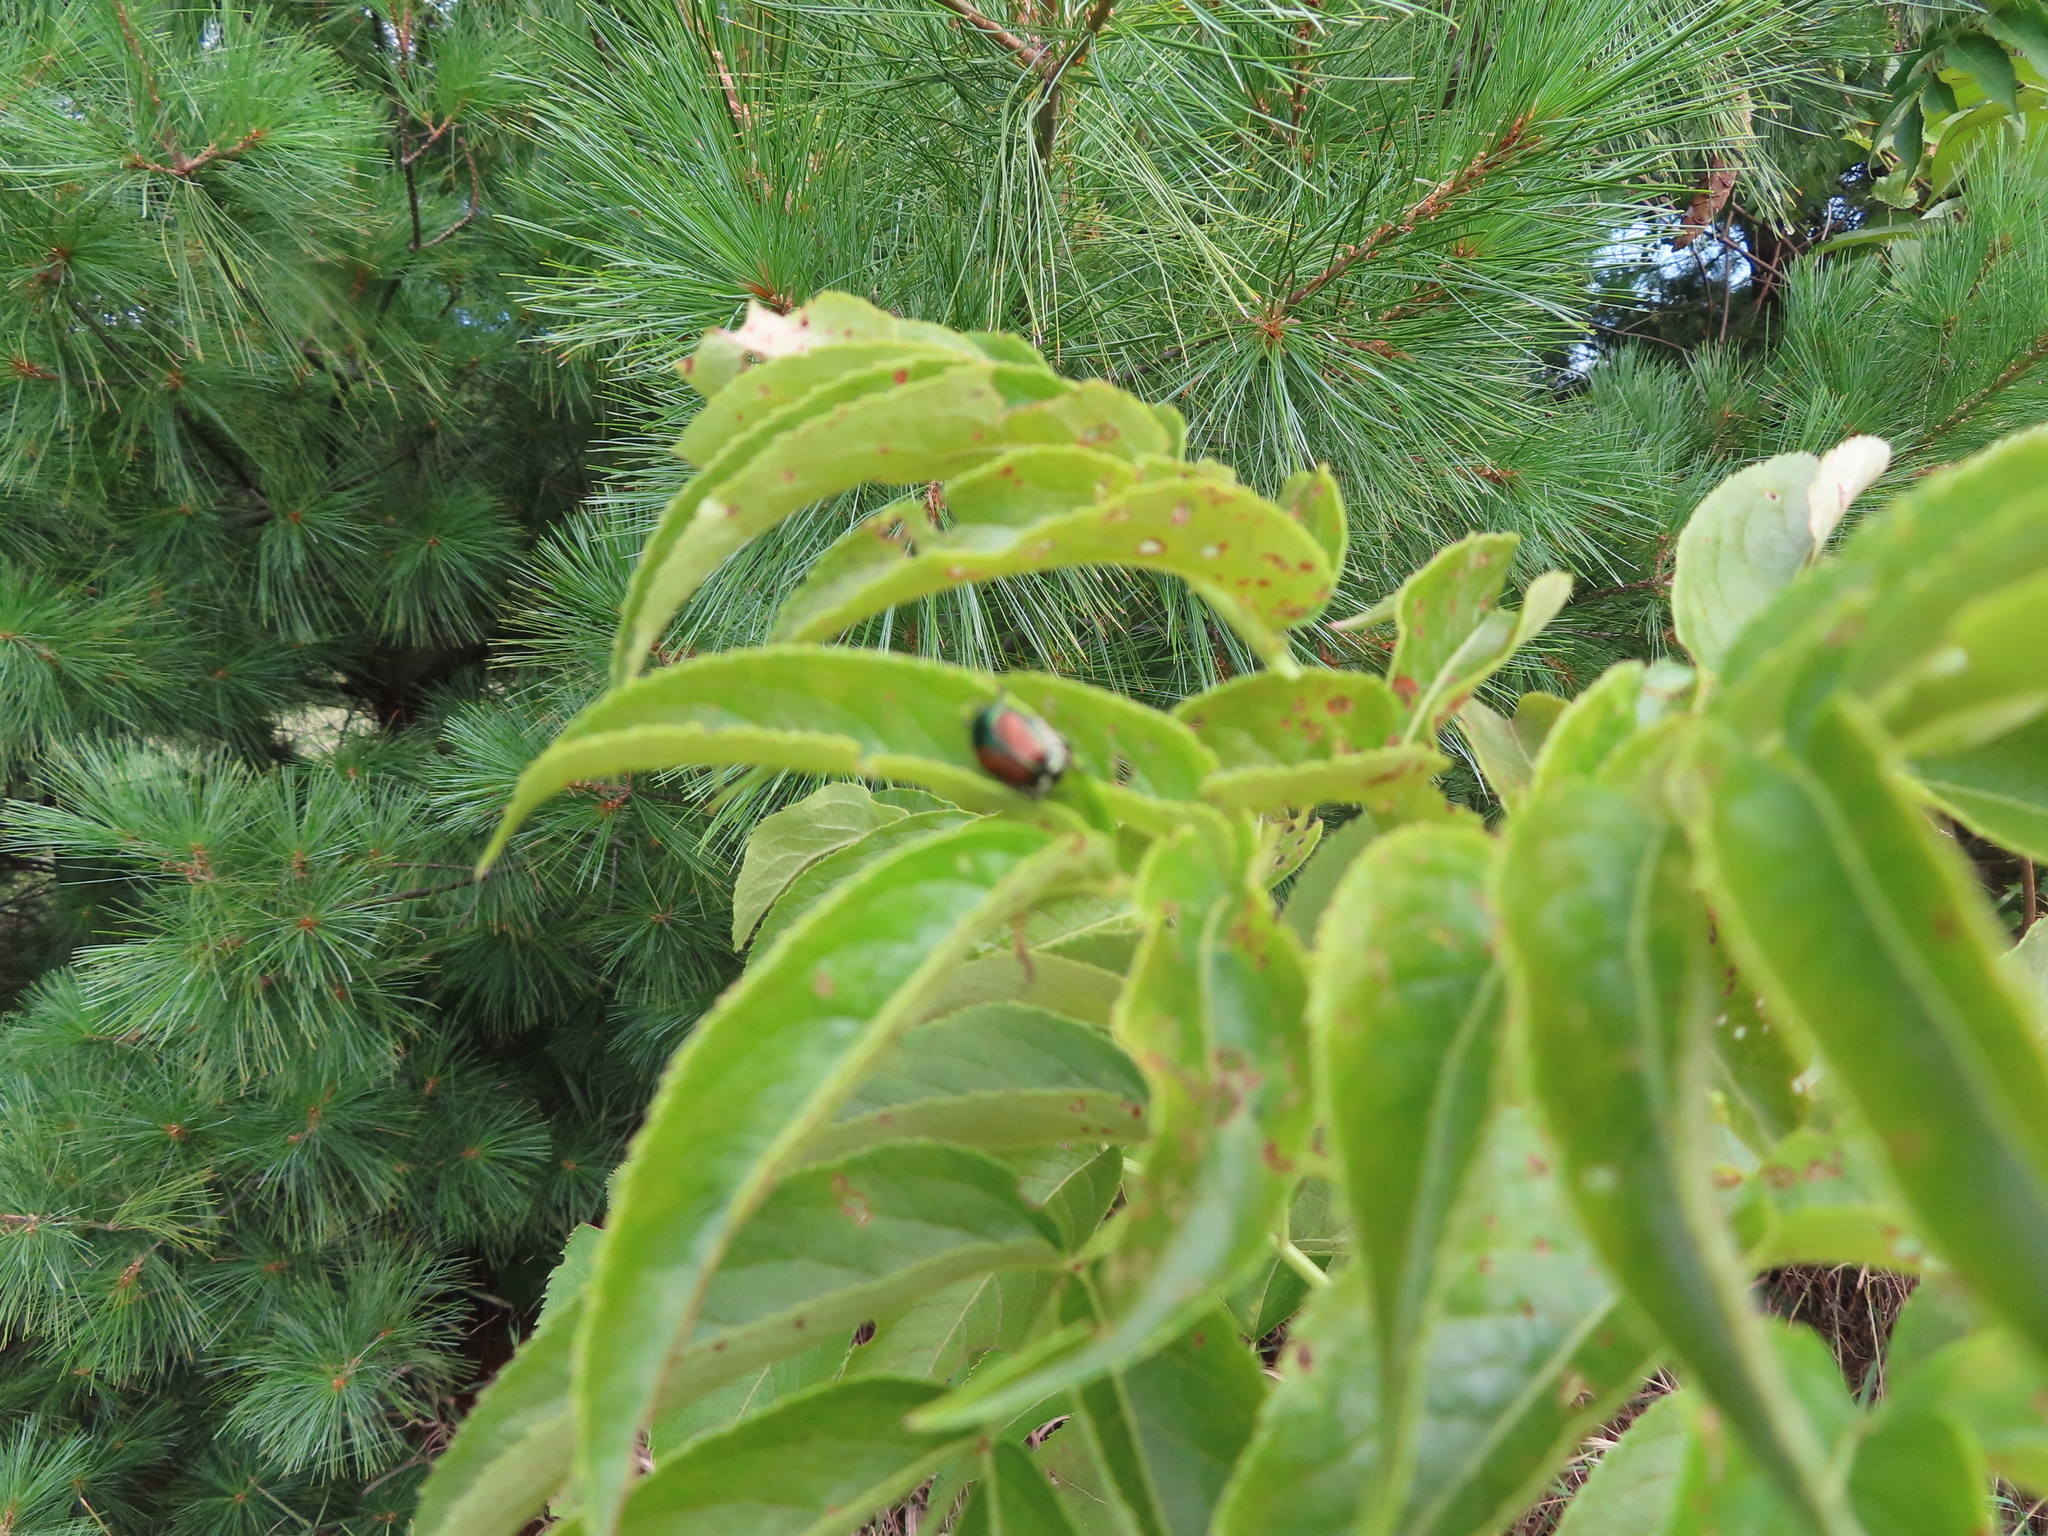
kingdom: Animalia
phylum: Arthropoda
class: Insecta
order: Coleoptera
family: Scarabaeidae
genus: Popillia
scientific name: Popillia japonica
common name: Japanese beetle
